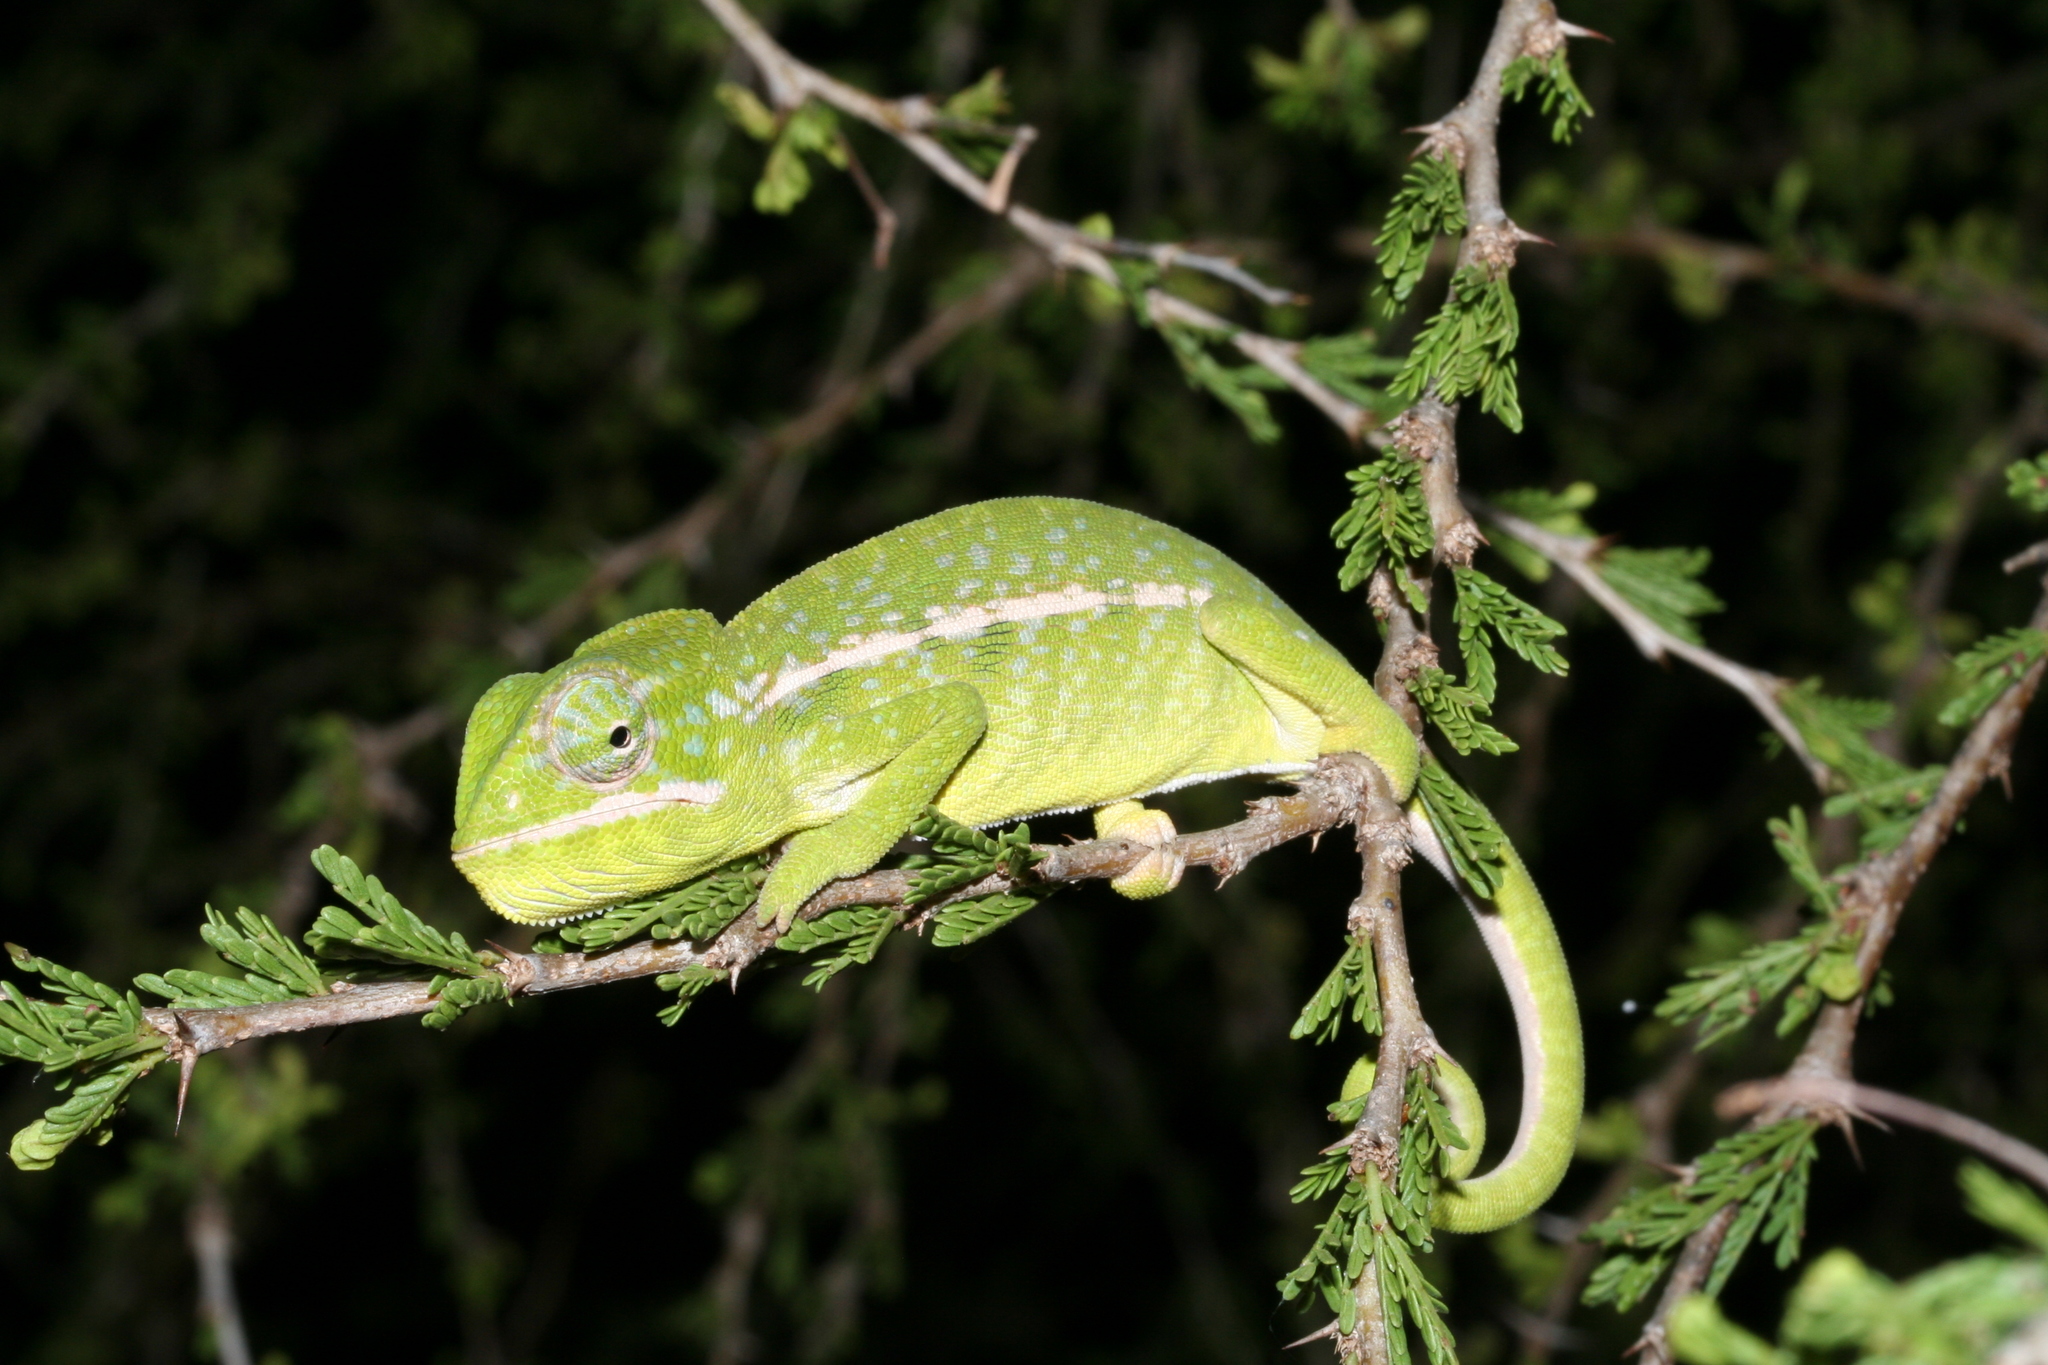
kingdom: Animalia
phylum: Chordata
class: Squamata
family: Chamaeleonidae
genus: Furcifer
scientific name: Furcifer major
